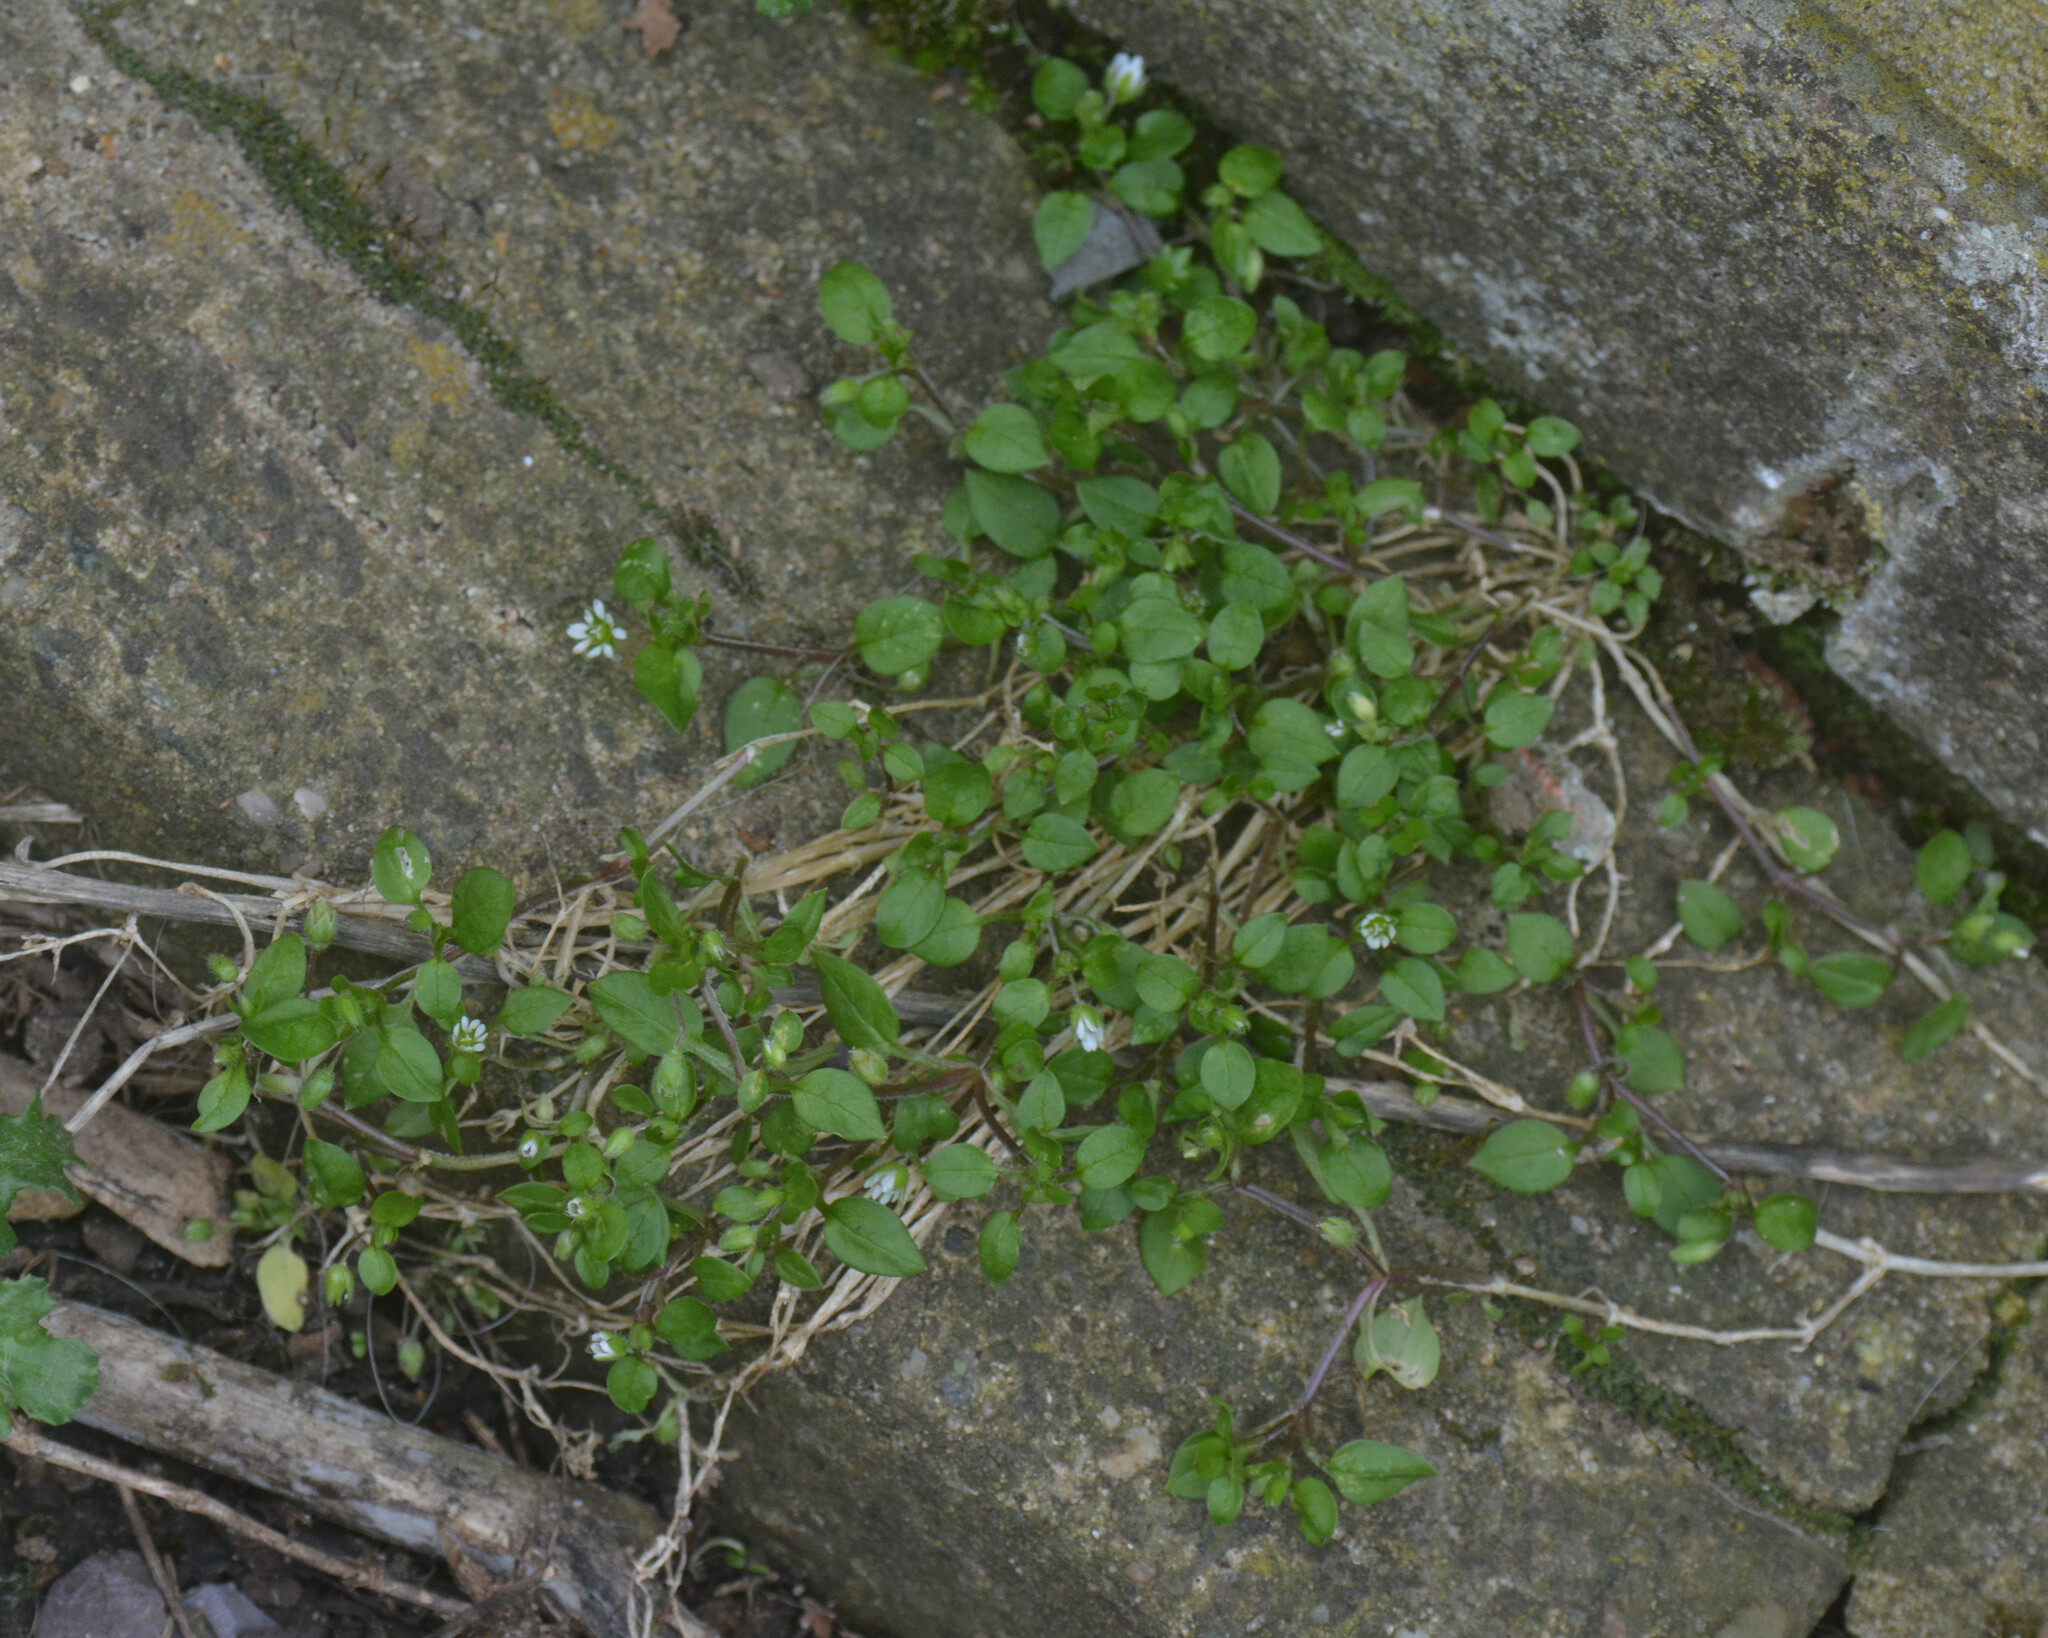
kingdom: Plantae
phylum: Tracheophyta
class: Magnoliopsida
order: Caryophyllales
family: Caryophyllaceae
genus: Stellaria
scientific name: Stellaria media
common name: Common chickweed
